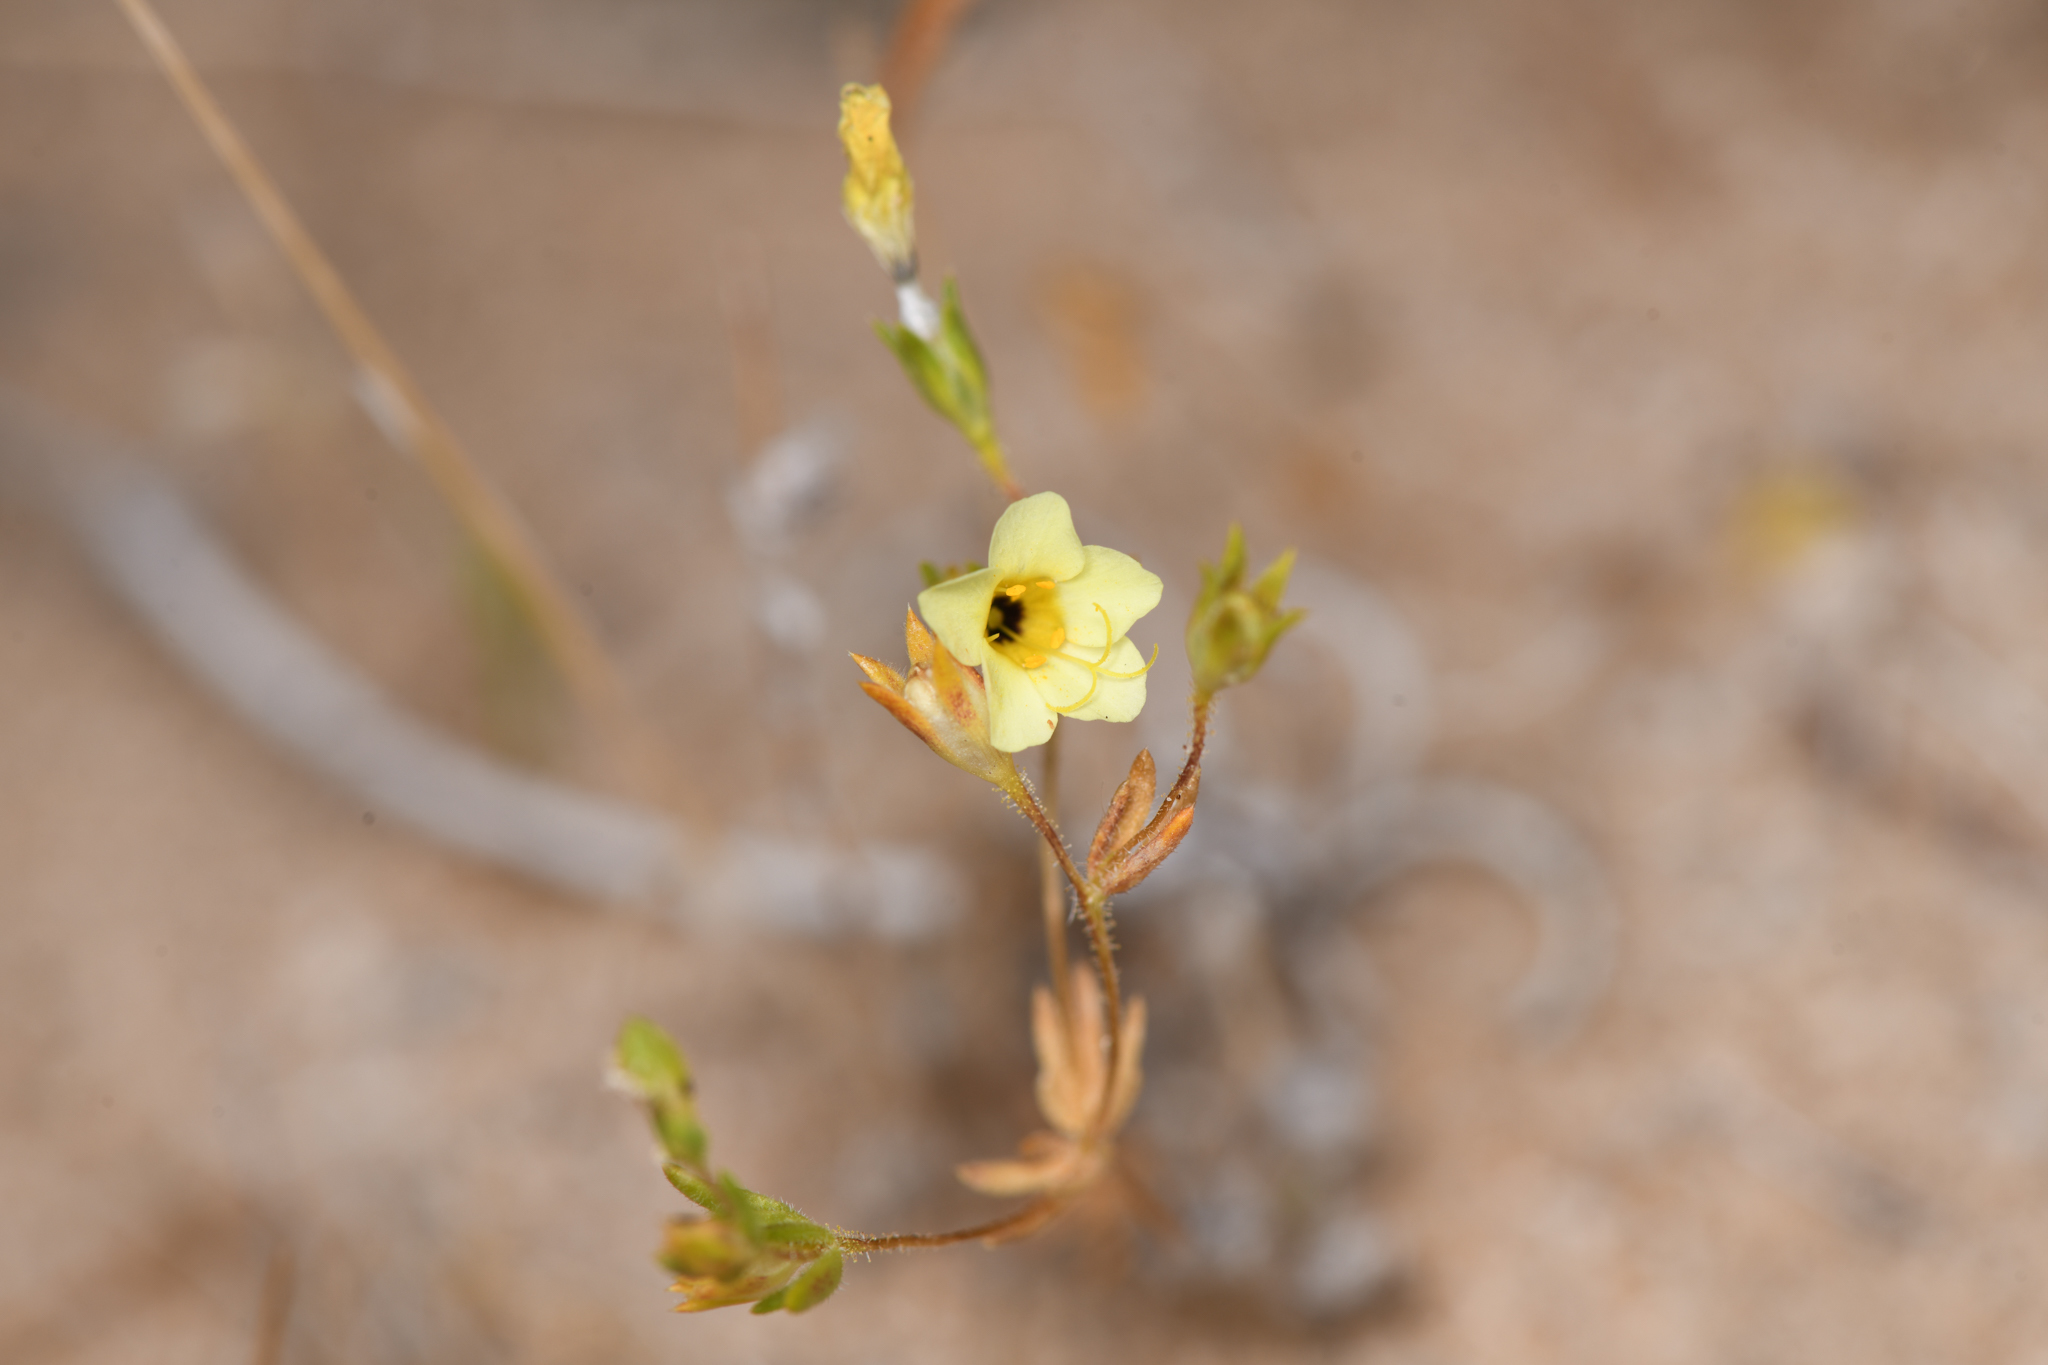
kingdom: Plantae
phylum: Tracheophyta
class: Magnoliopsida
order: Ericales
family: Polemoniaceae
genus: Leptosiphon
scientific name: Leptosiphon chrysanthus
